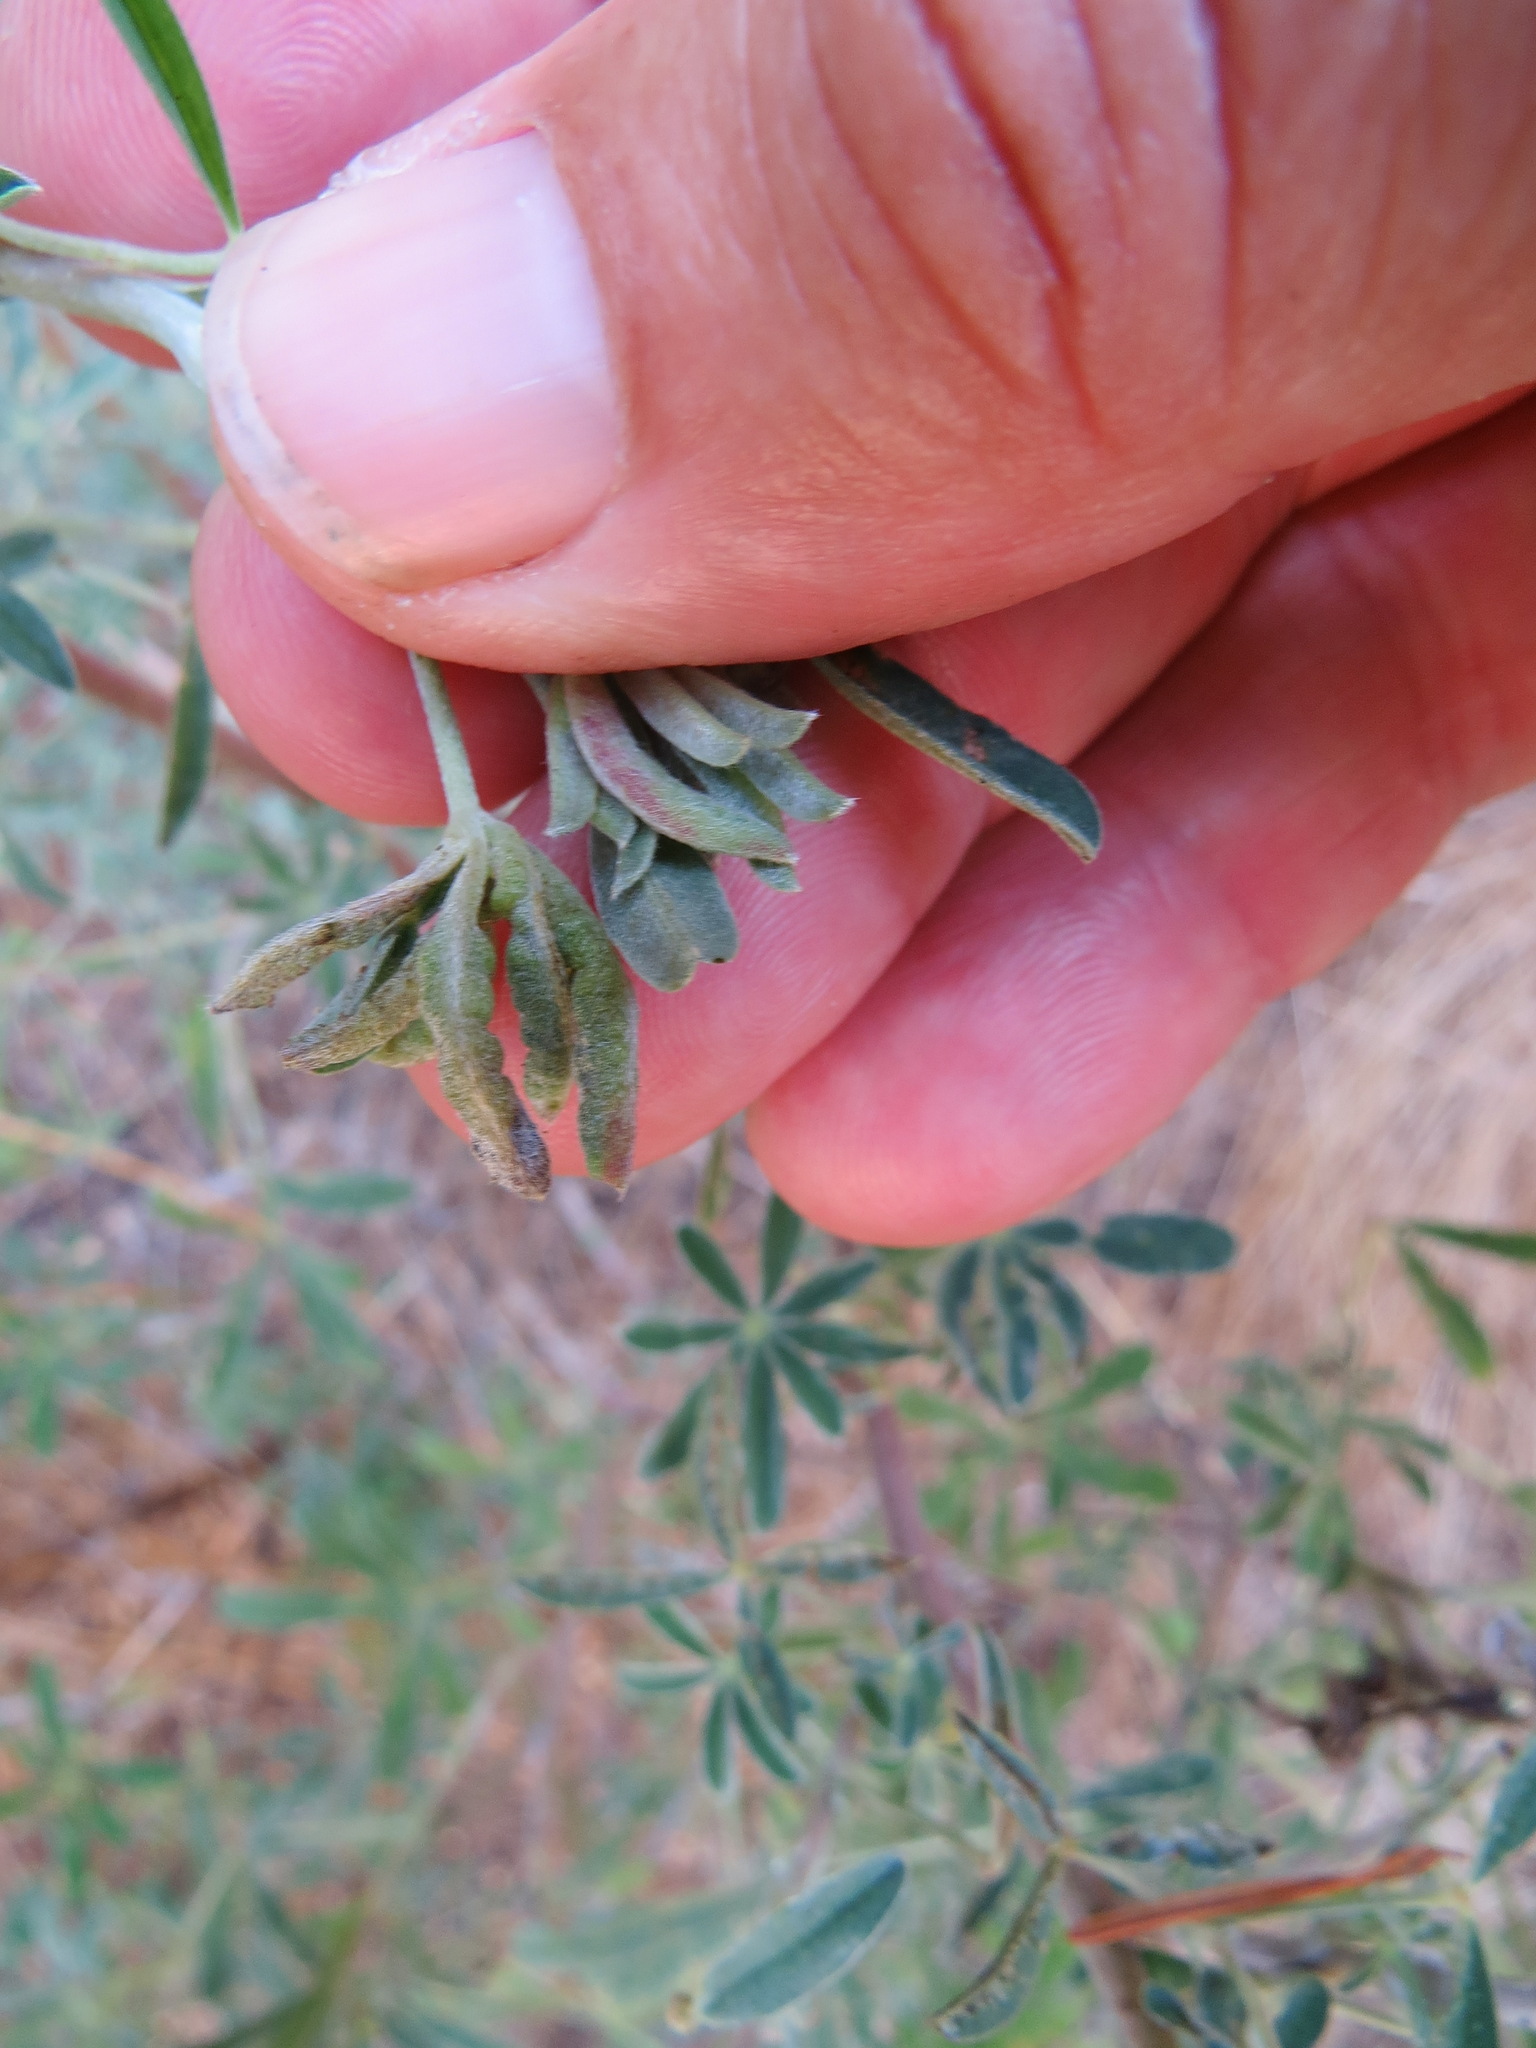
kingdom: Animalia
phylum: Arthropoda
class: Insecta
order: Diptera
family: Cecidomyiidae
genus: Dasineura
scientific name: Dasineura lupinorum
